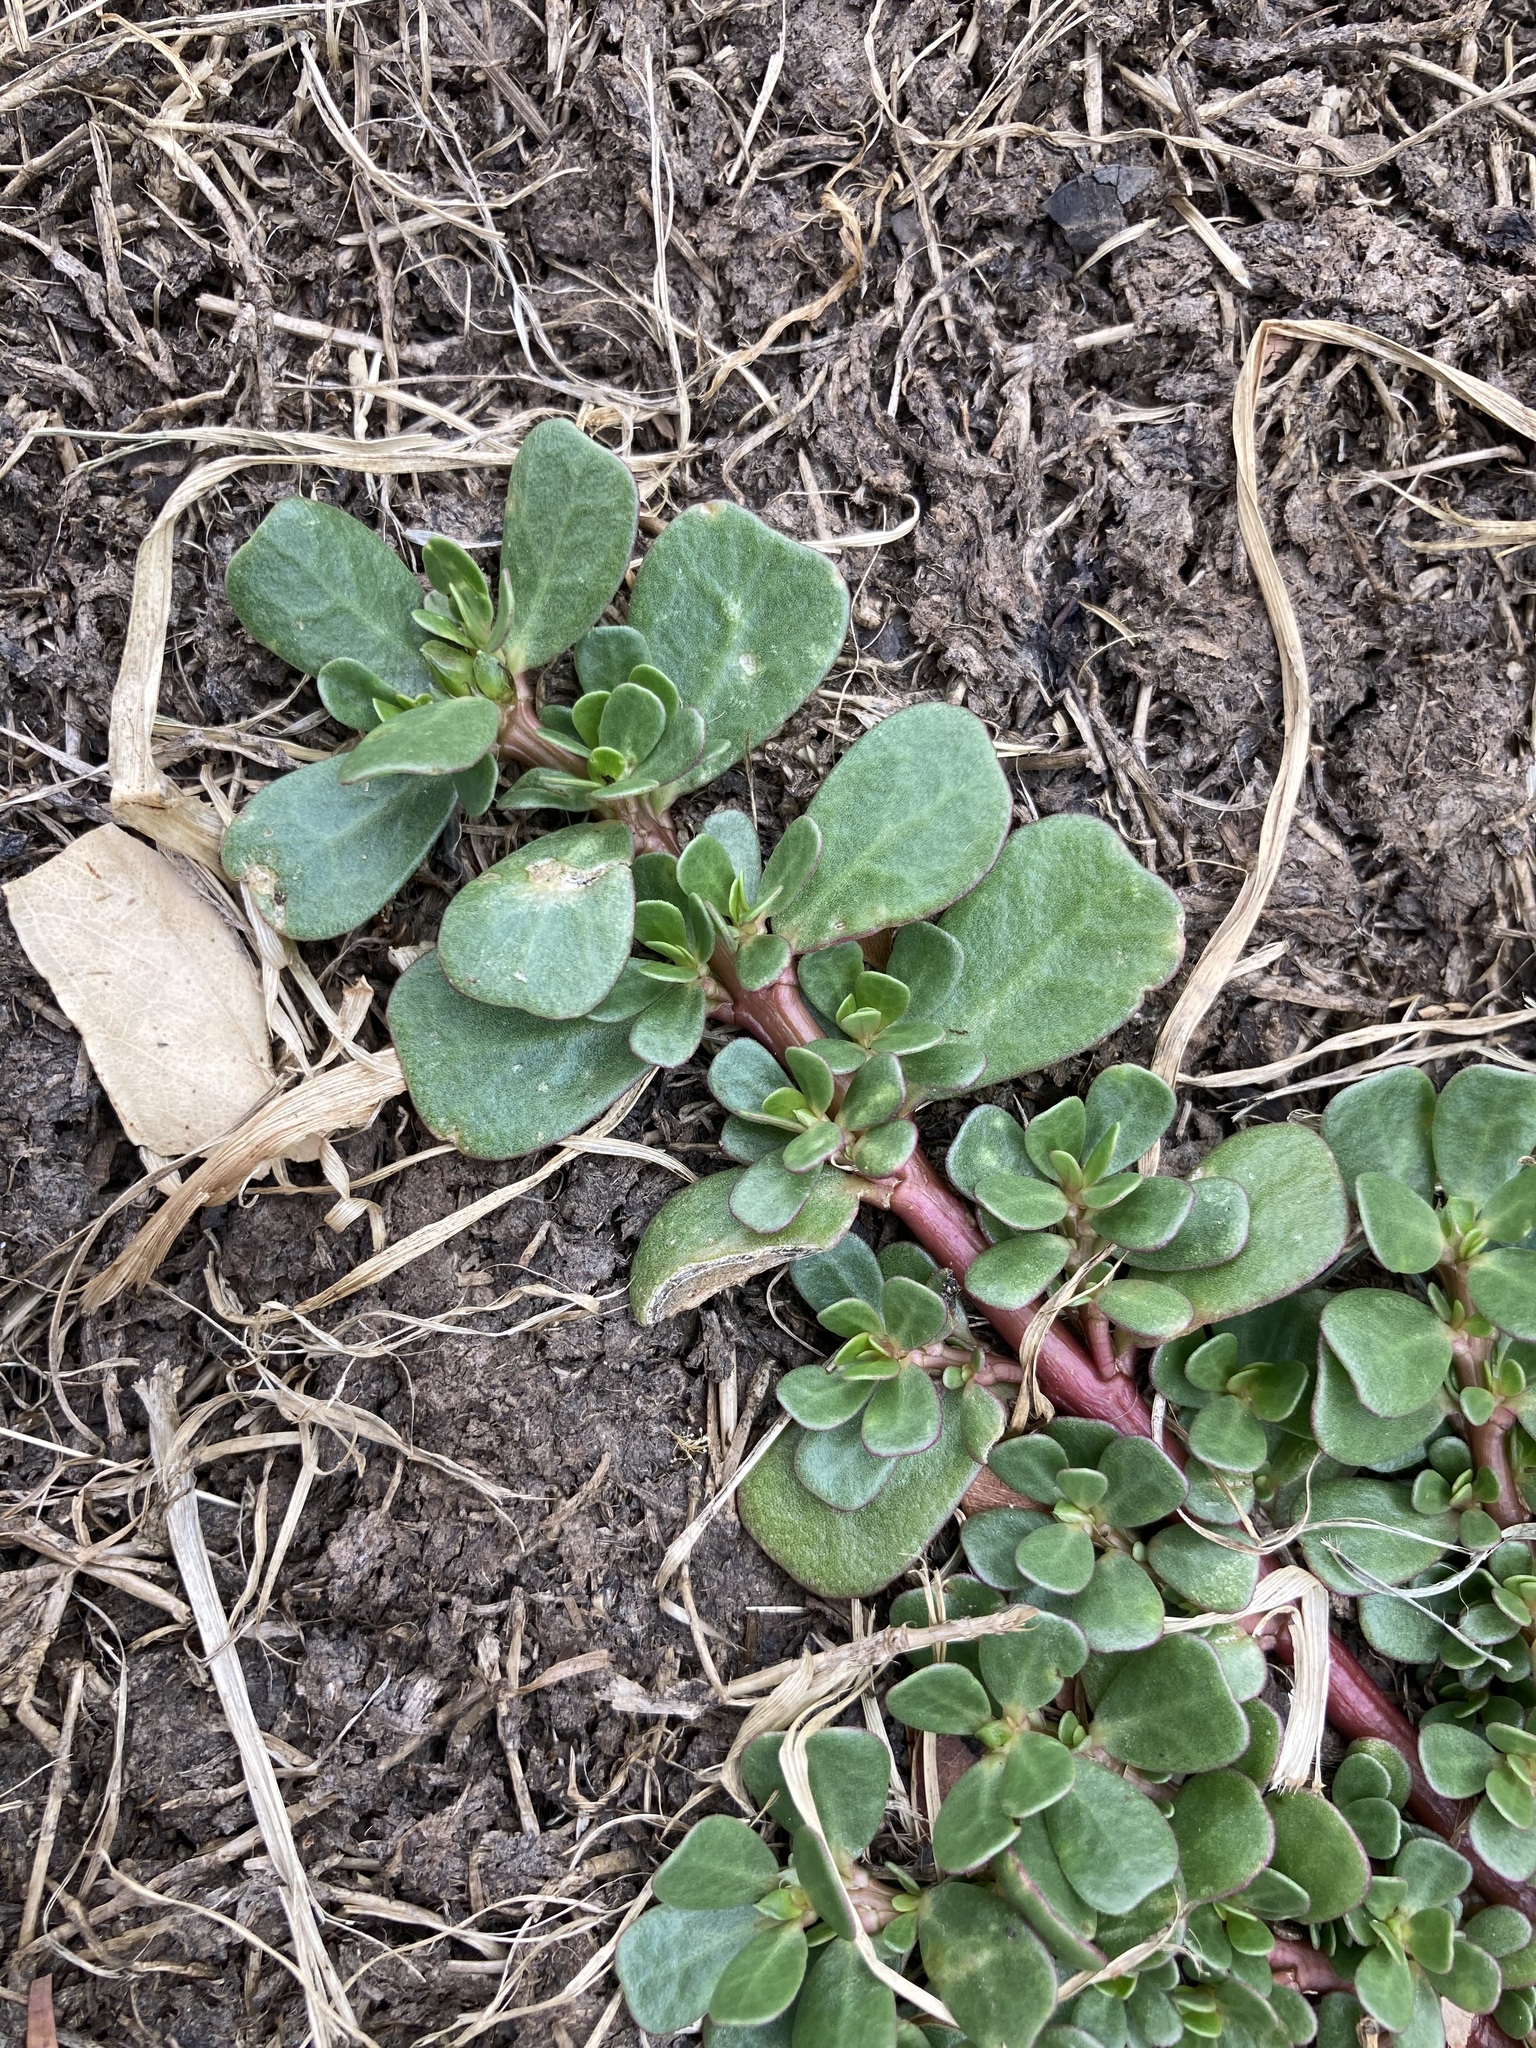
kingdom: Plantae
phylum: Tracheophyta
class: Magnoliopsida
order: Caryophyllales
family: Portulacaceae
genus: Portulaca
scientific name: Portulaca oleracea
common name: Common purslane
